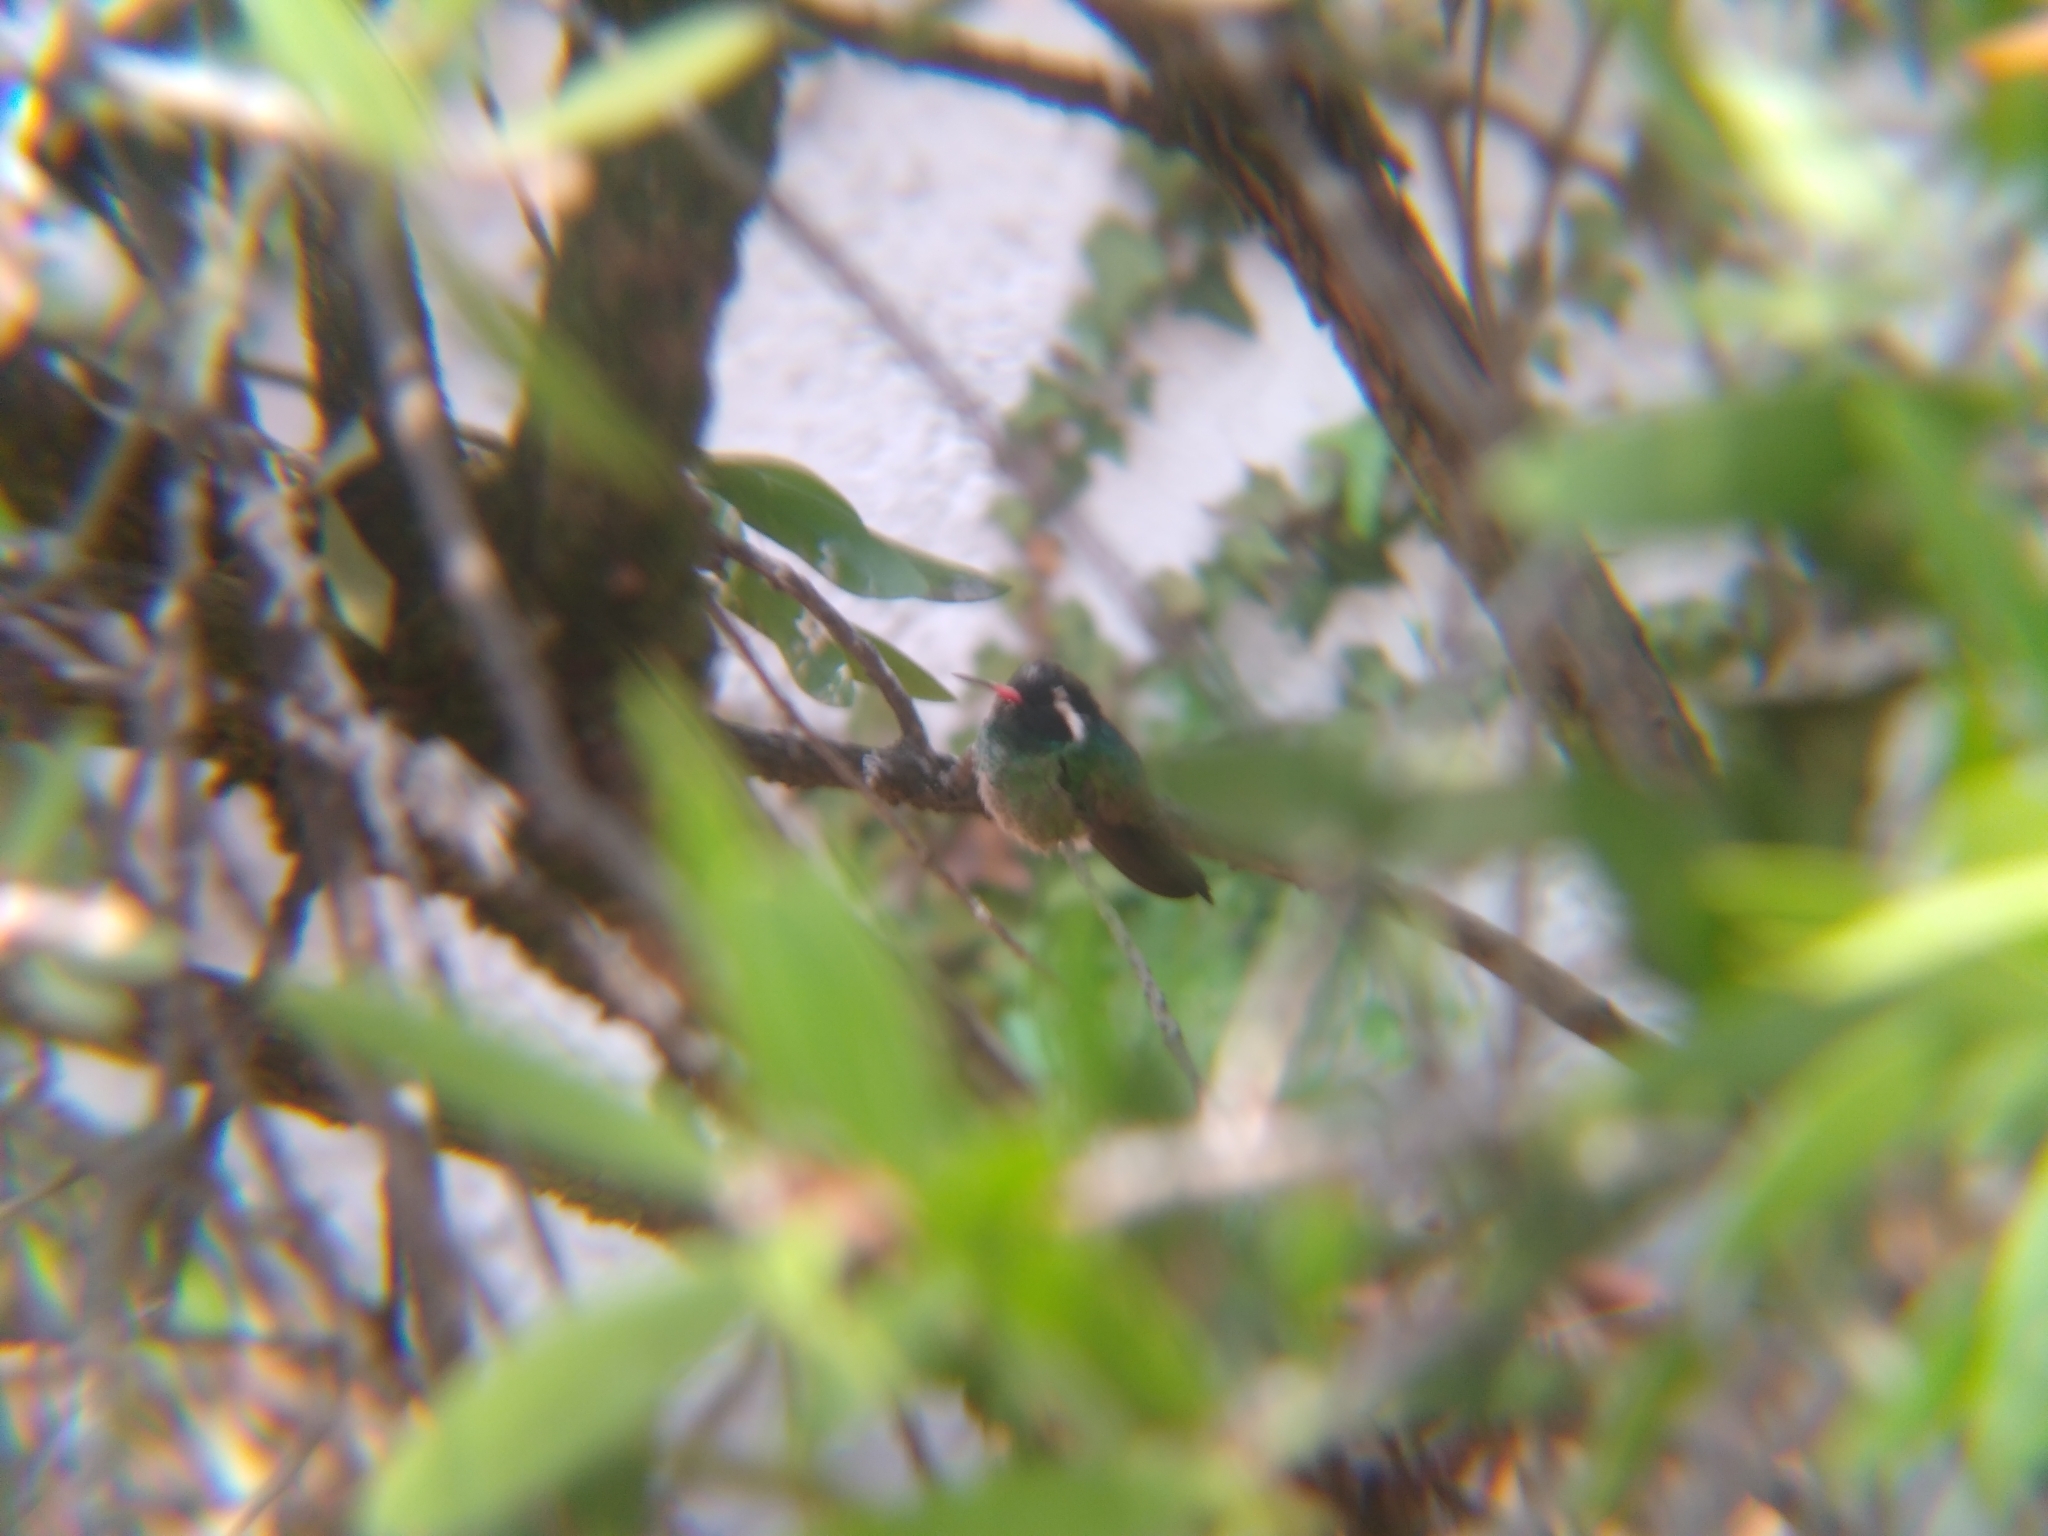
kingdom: Animalia
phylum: Chordata
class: Aves
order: Apodiformes
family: Trochilidae
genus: Basilinna
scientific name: Basilinna leucotis
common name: White-eared hummingbird
